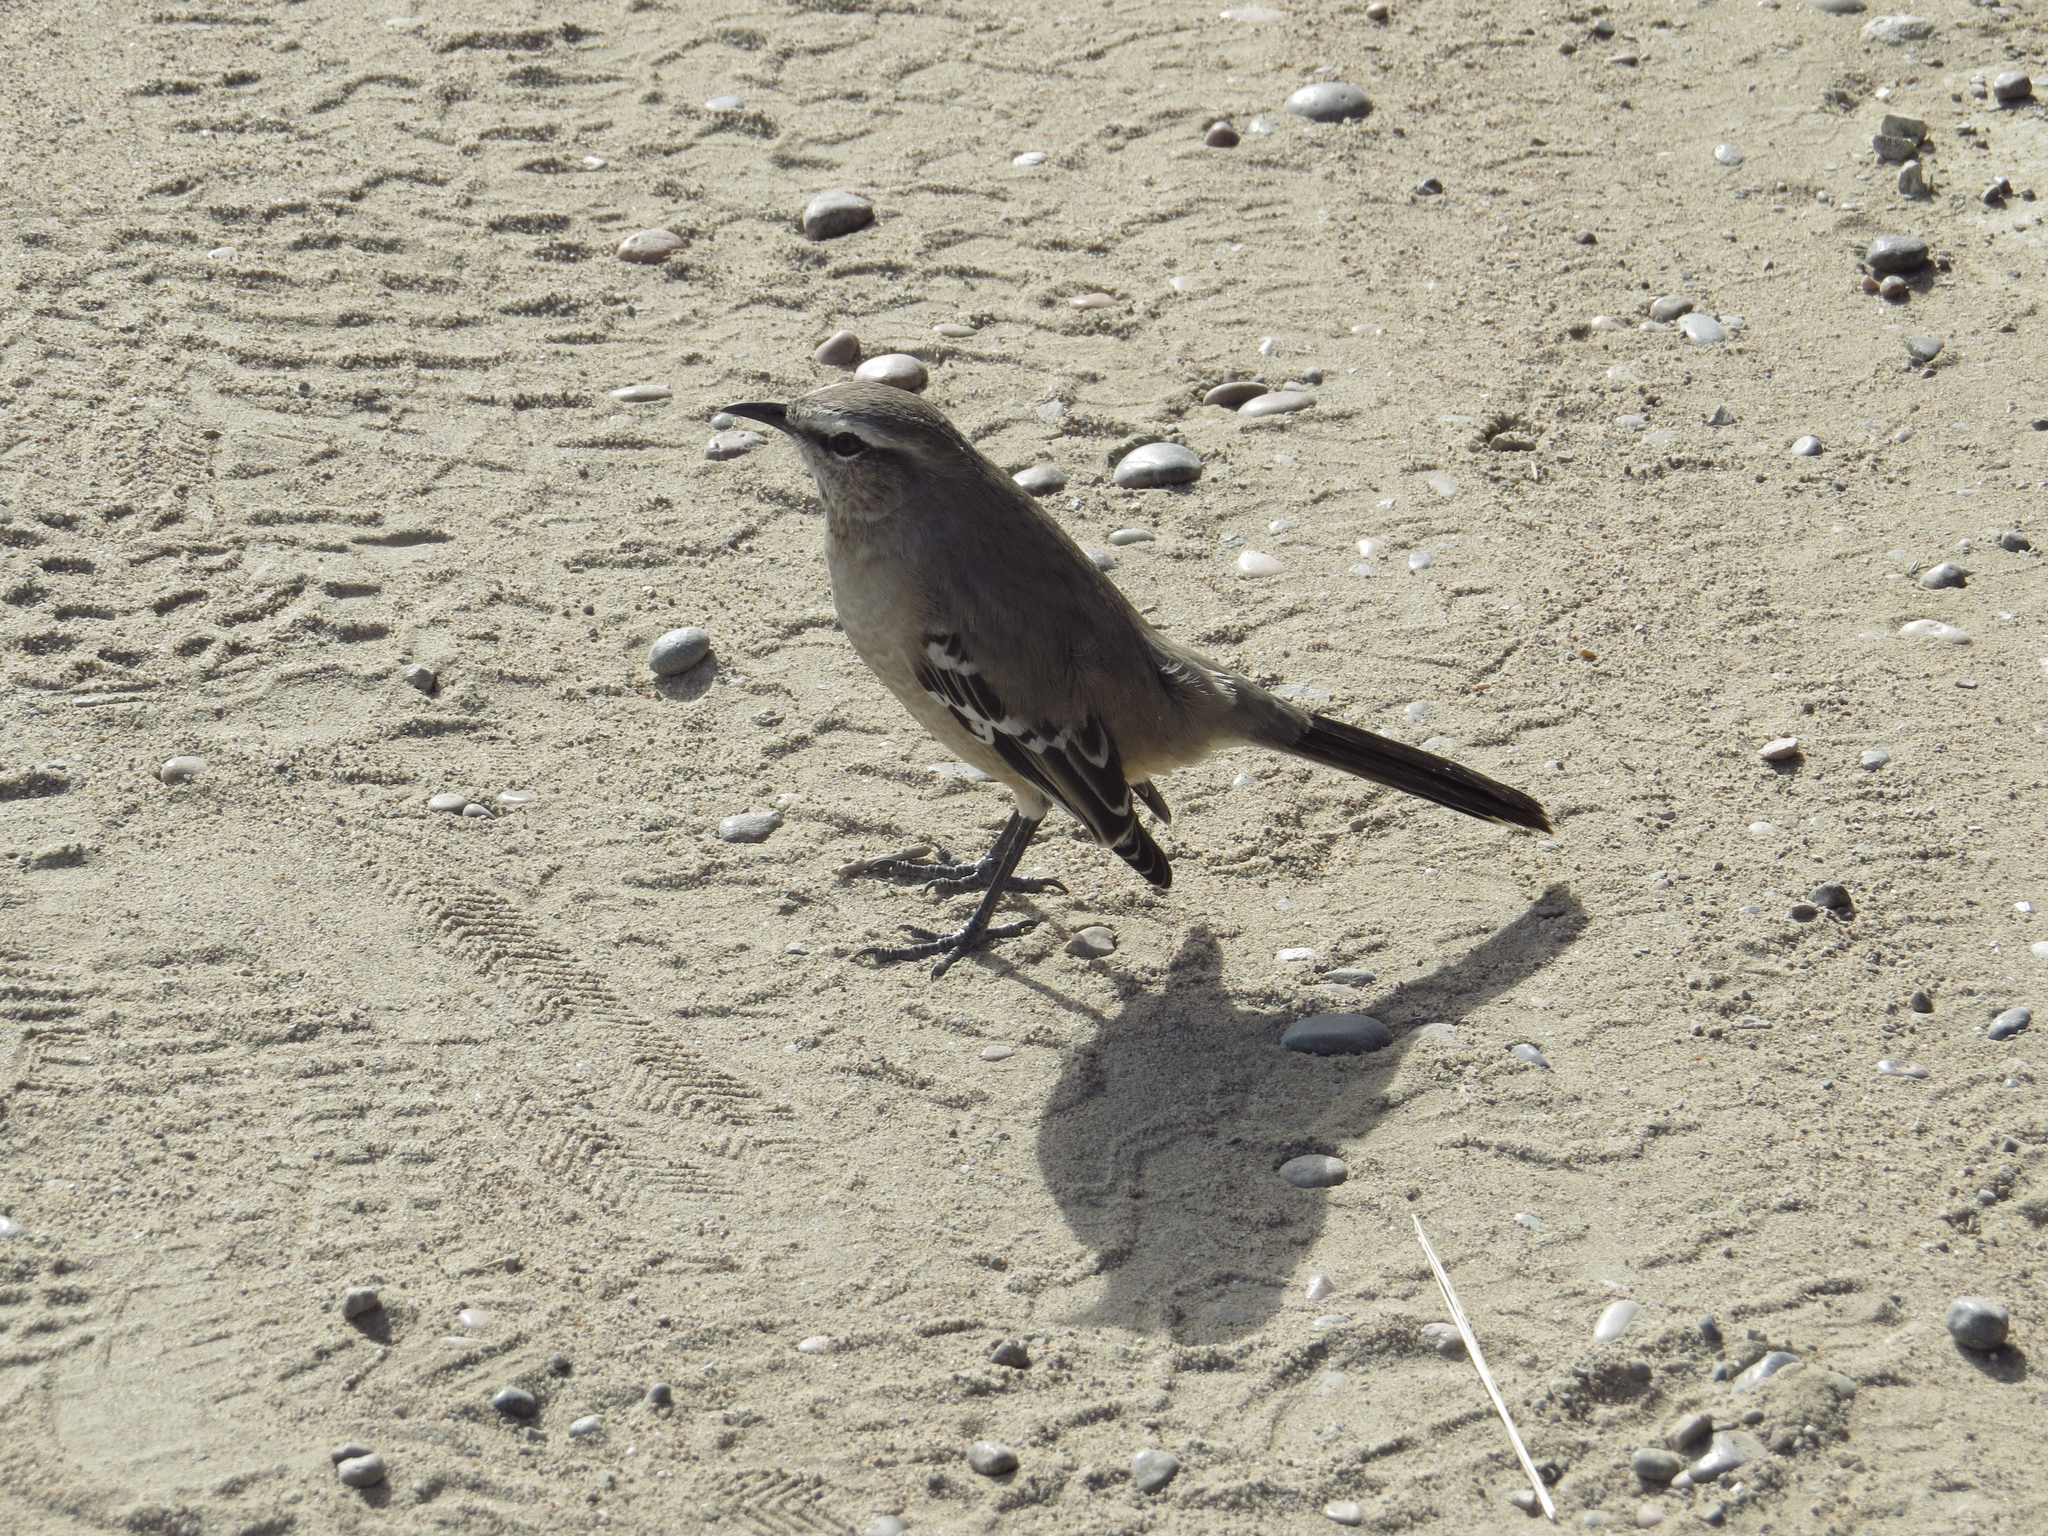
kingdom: Animalia
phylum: Chordata
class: Aves
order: Passeriformes
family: Mimidae
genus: Mimus
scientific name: Mimus patagonicus
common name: Patagonian mockingbird
